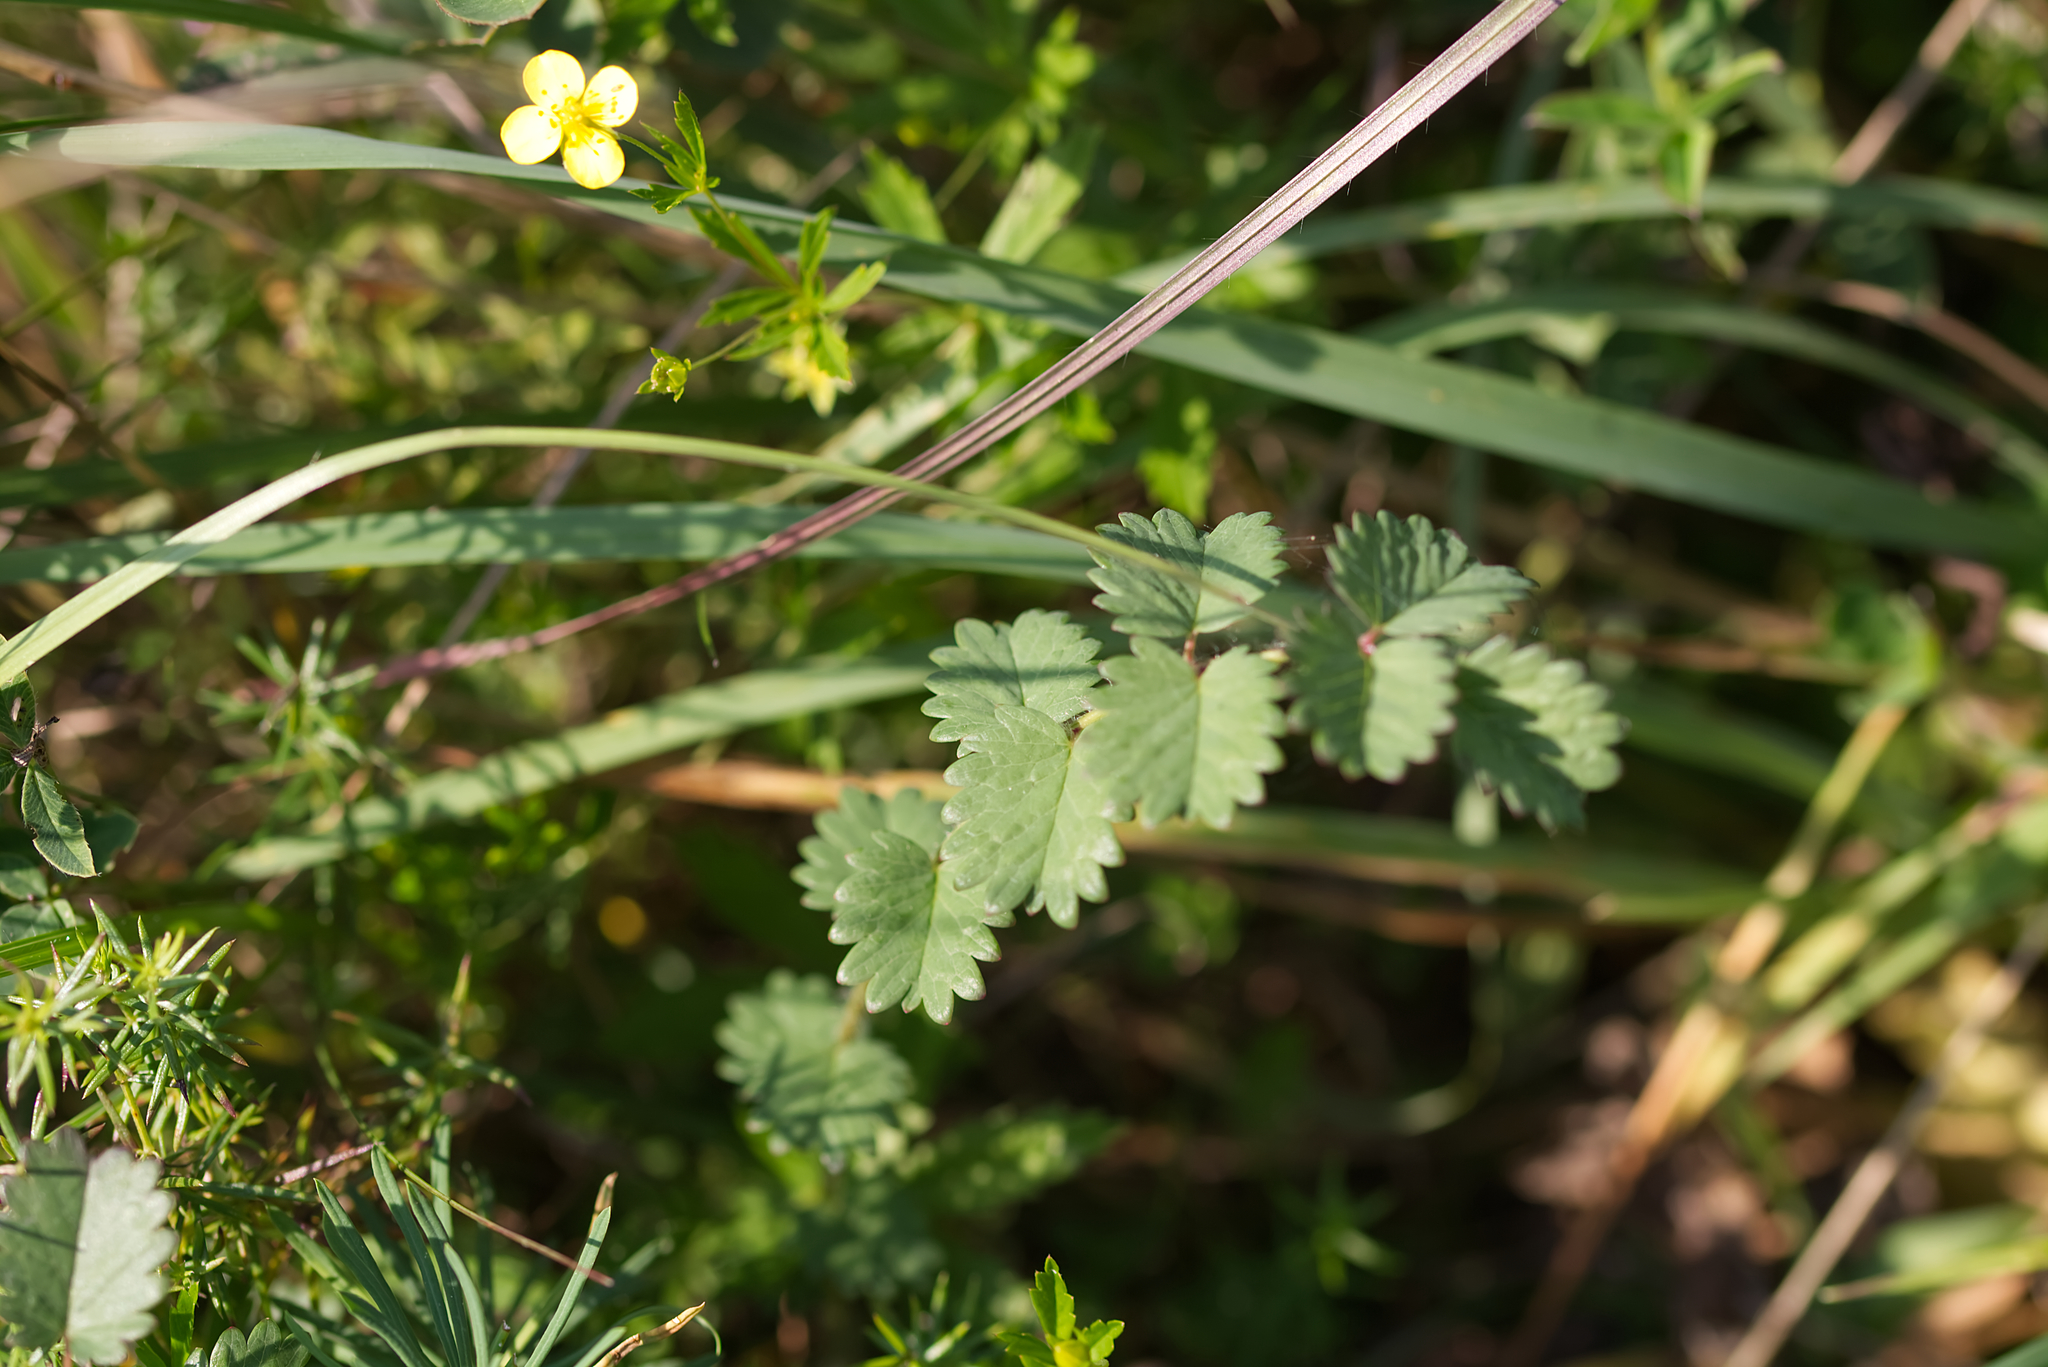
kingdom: Plantae
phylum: Tracheophyta
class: Magnoliopsida
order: Rosales
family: Rosaceae
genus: Poterium
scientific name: Poterium sanguisorba
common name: Salad burnet
